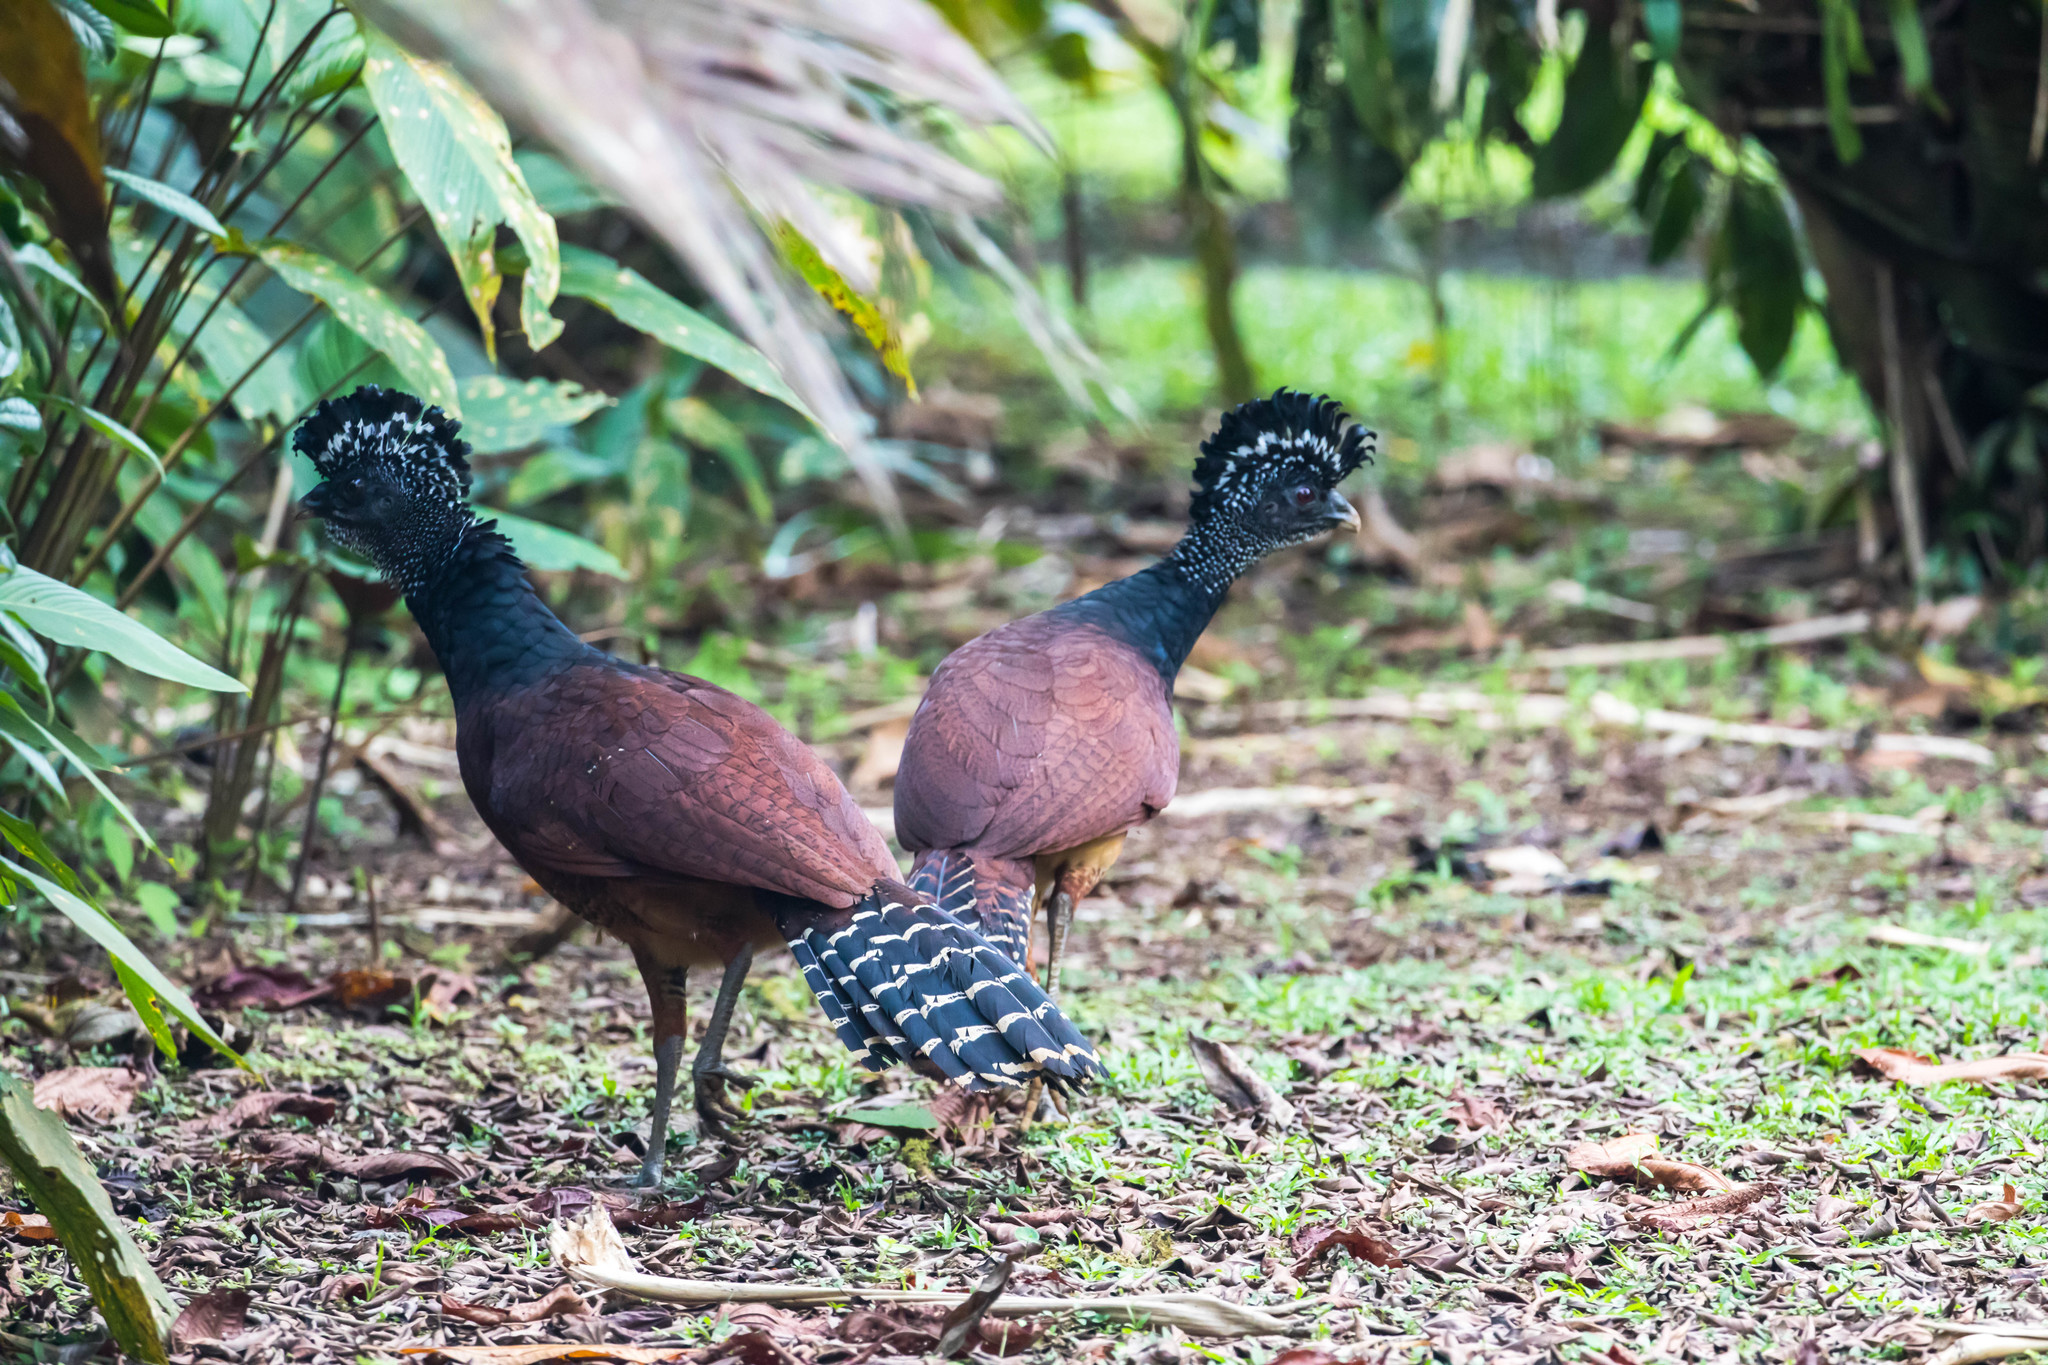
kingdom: Animalia
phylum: Chordata
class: Aves
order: Galliformes
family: Cracidae
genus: Crax
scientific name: Crax rubra
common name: Great curassow
